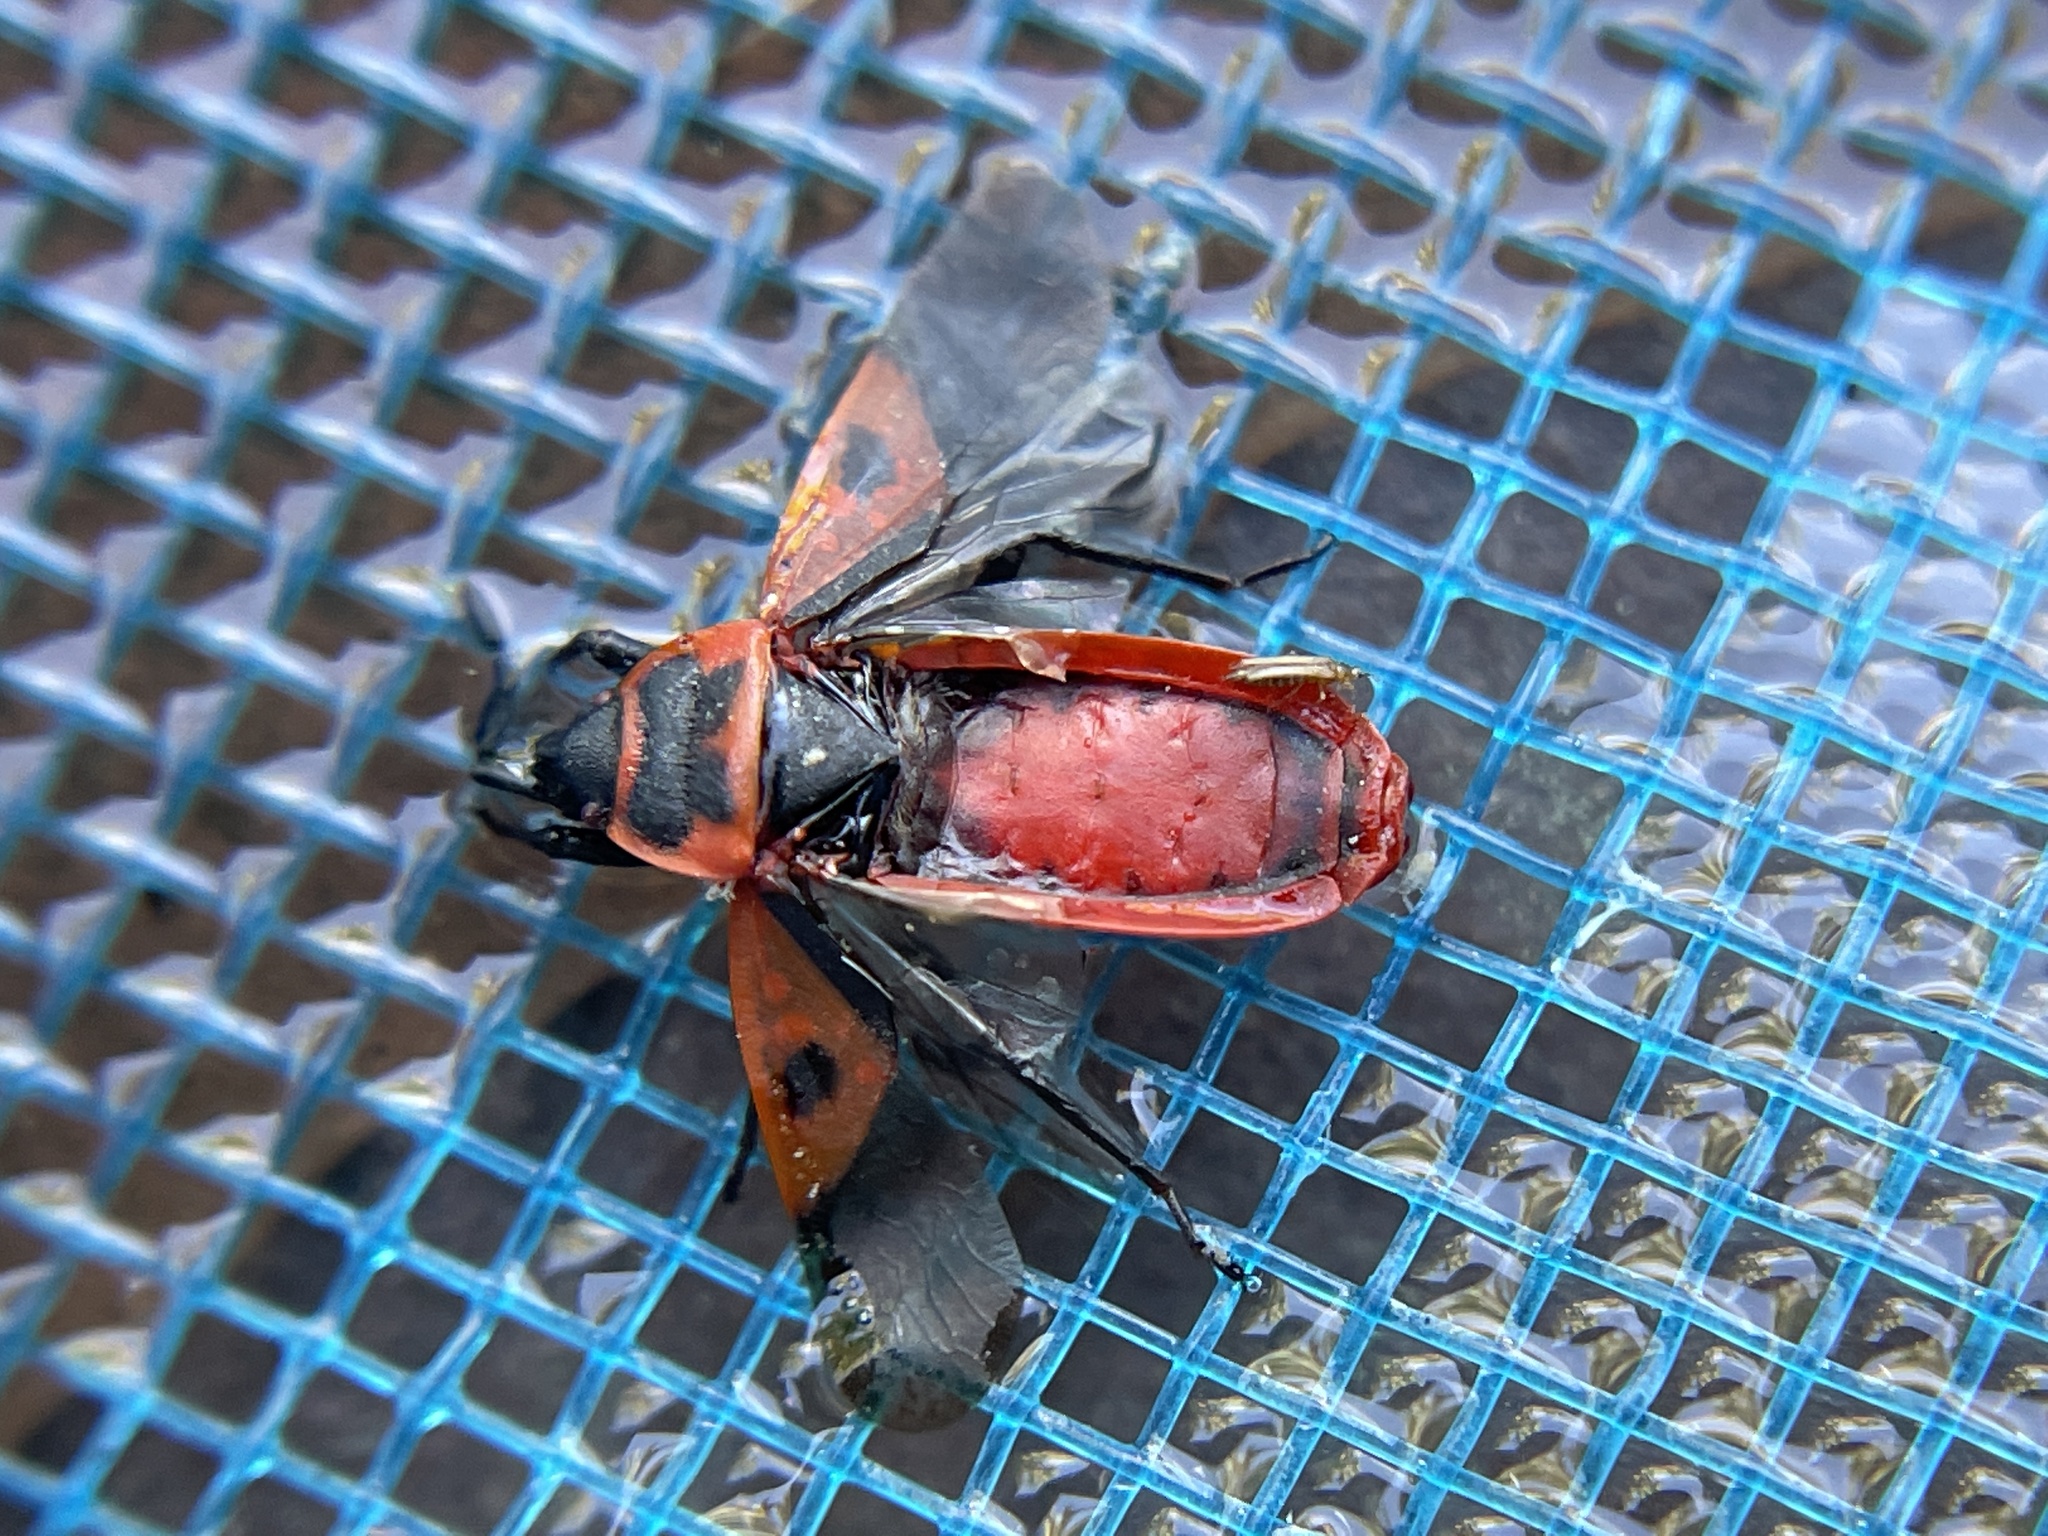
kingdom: Animalia
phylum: Arthropoda
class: Insecta
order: Hemiptera
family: Pyrrhocoridae
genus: Scantius
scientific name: Scantius aegyptius
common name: Red bug
